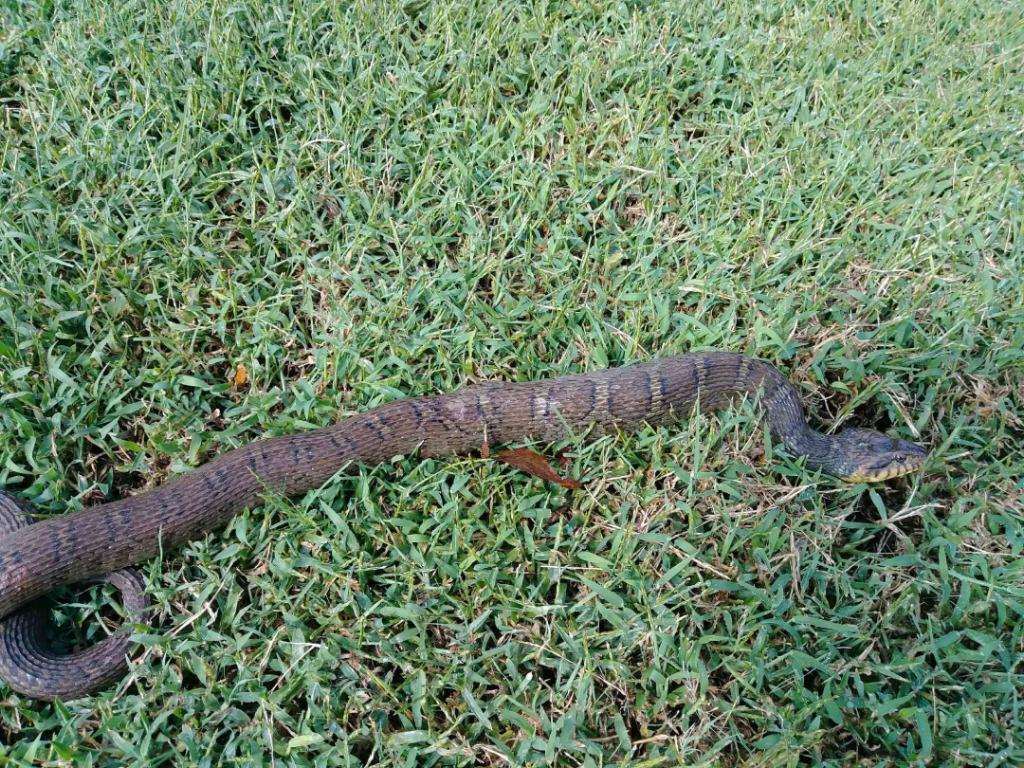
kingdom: Animalia
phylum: Chordata
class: Squamata
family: Colubridae
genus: Nerodia
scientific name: Nerodia erythrogaster
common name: Plainbelly water snake
